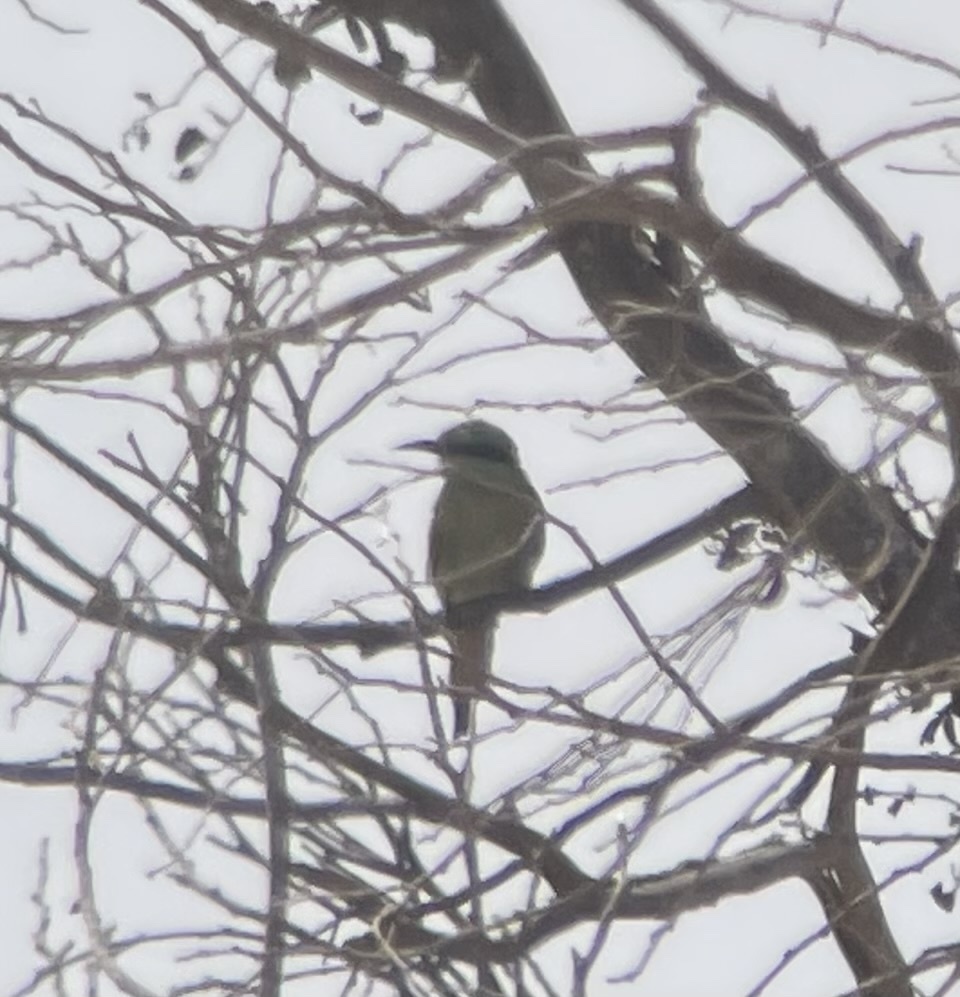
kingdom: Animalia
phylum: Chordata
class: Aves
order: Coraciiformes
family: Meropidae
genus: Merops
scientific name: Merops cyanophrys
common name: Arabian green bee-eater
